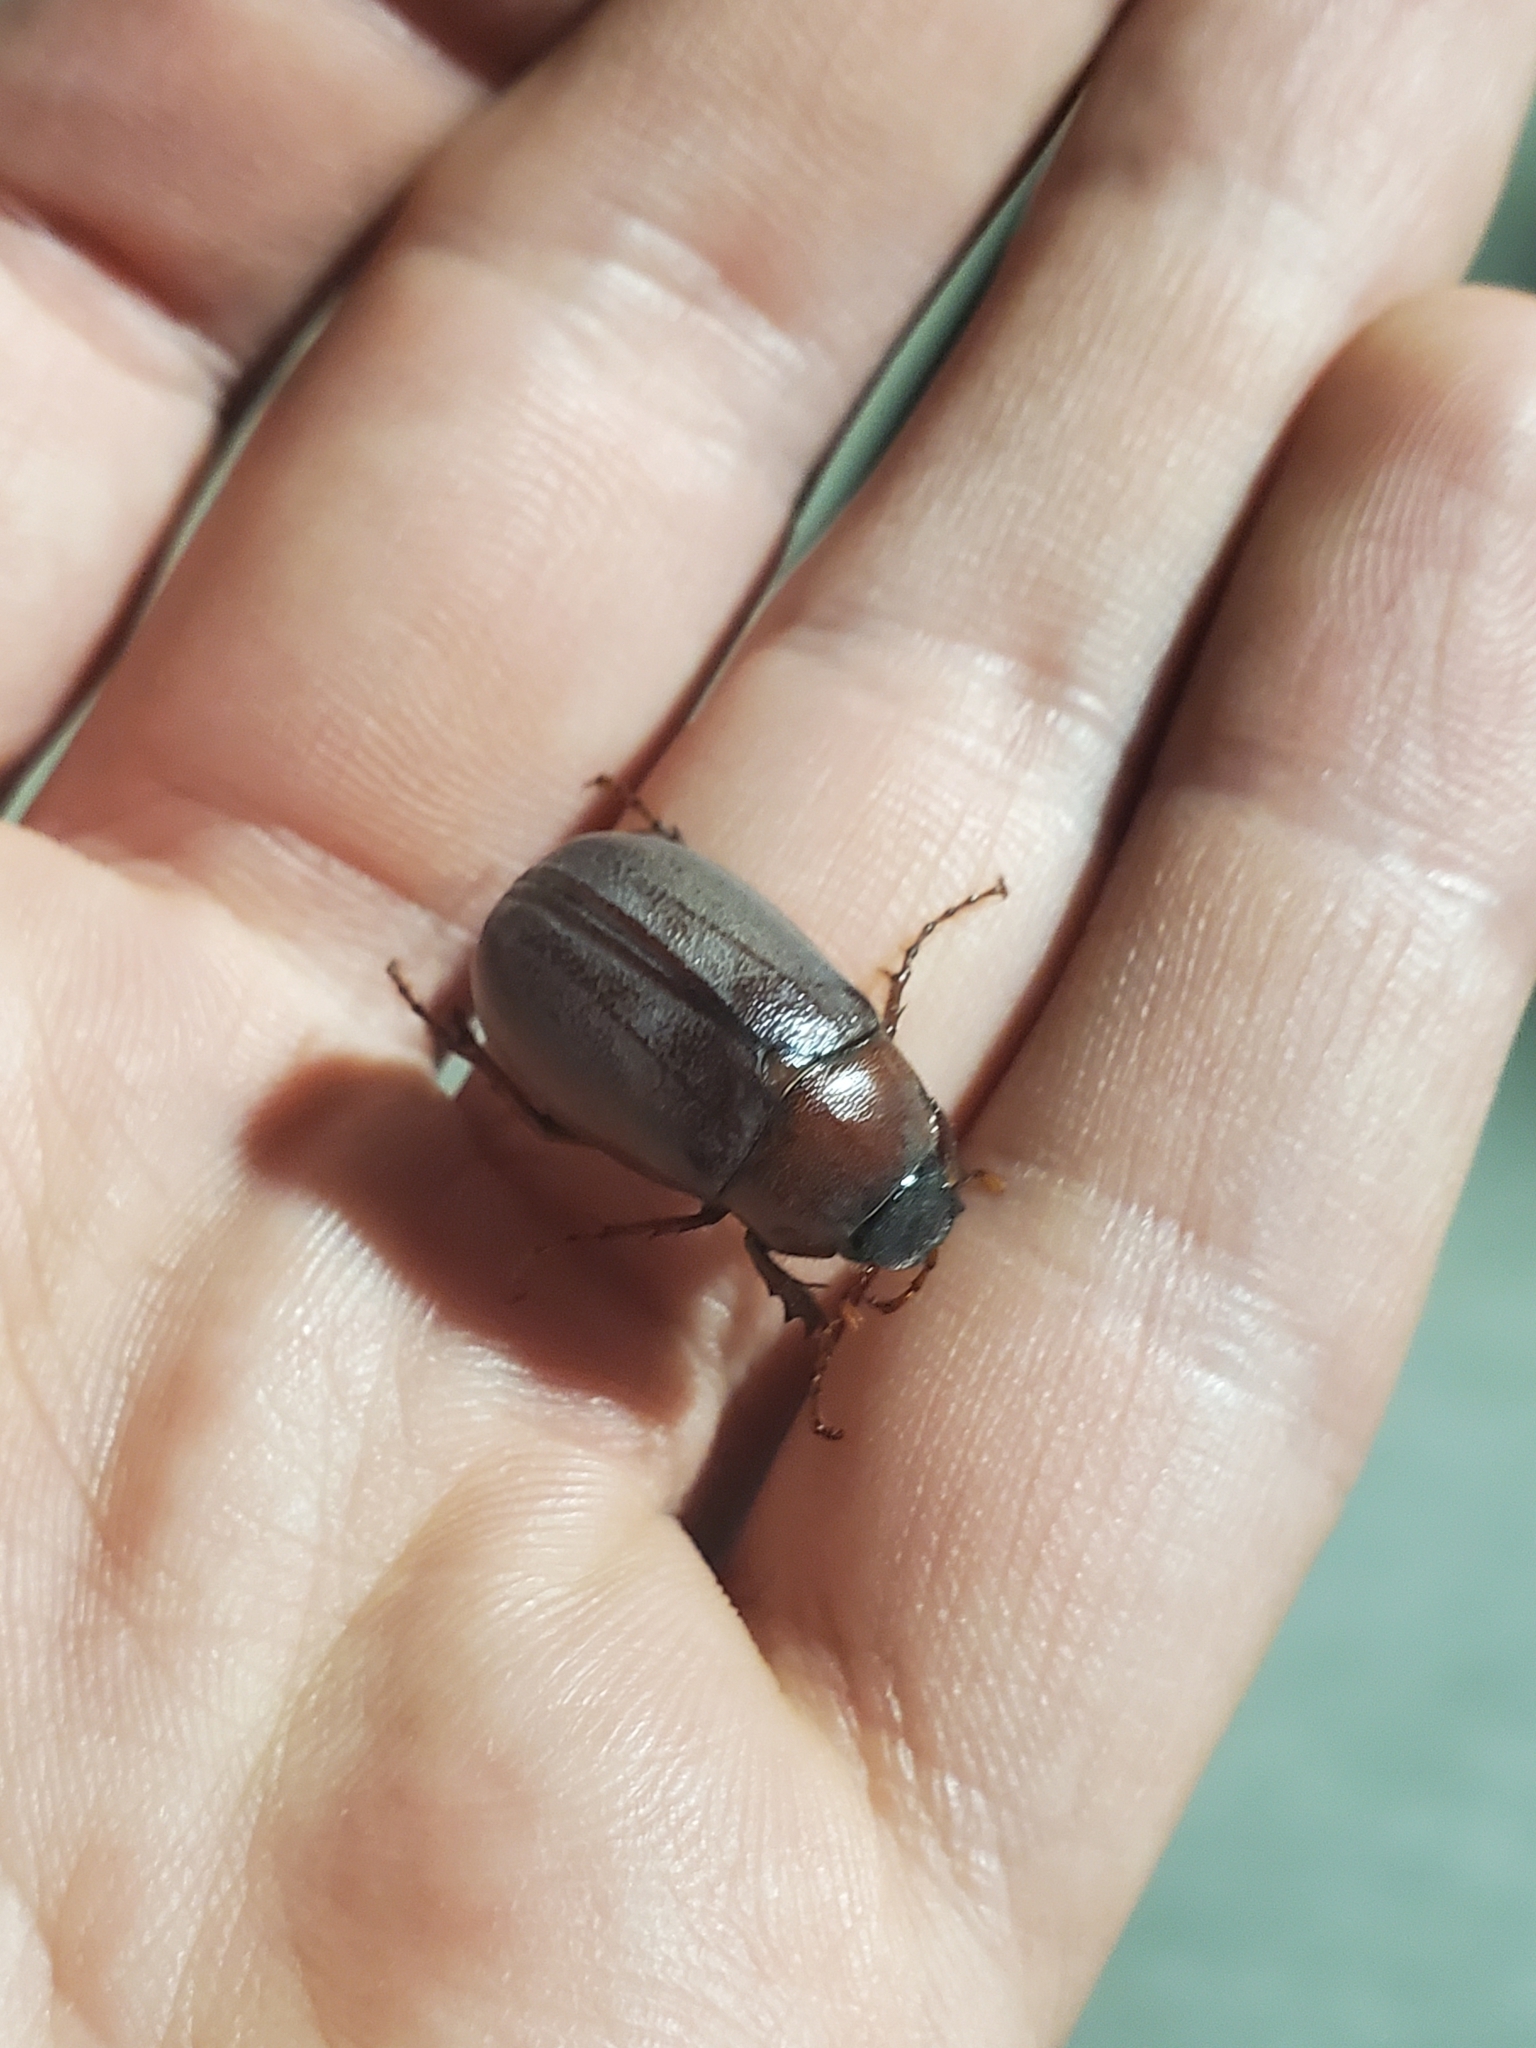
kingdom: Animalia
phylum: Arthropoda
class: Insecta
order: Coleoptera
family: Scarabaeidae
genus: Phyllophaga
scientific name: Phyllophaga crassissima
